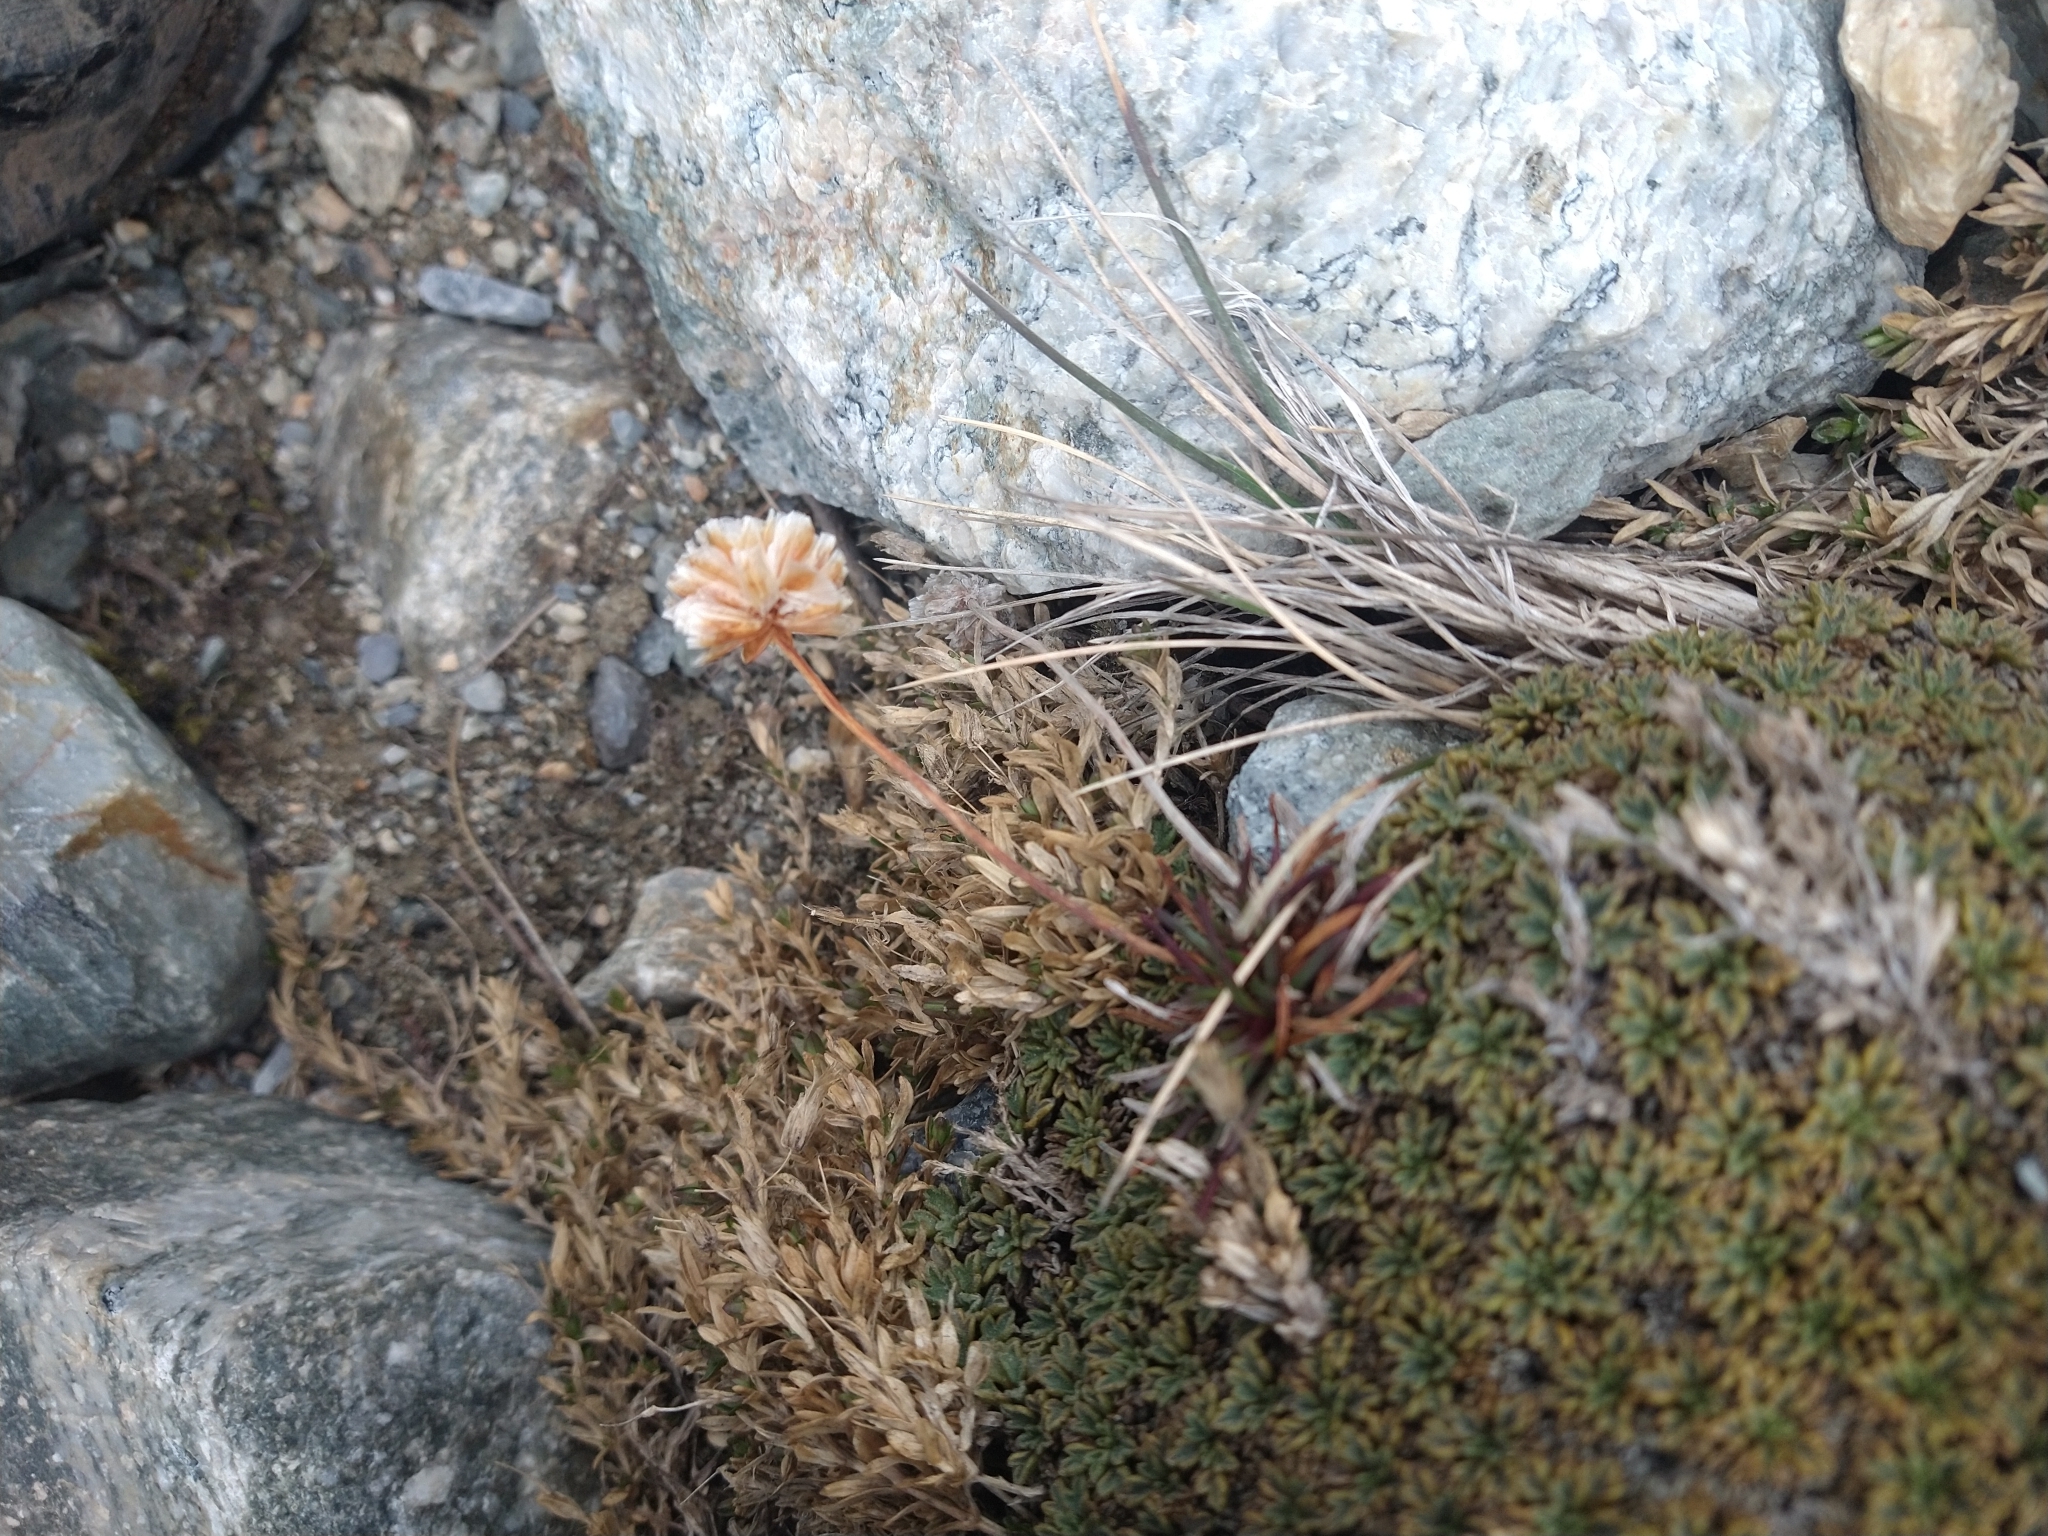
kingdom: Plantae
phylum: Tracheophyta
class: Magnoliopsida
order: Caryophyllales
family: Plumbaginaceae
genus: Armeria
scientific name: Armeria curvifolia
